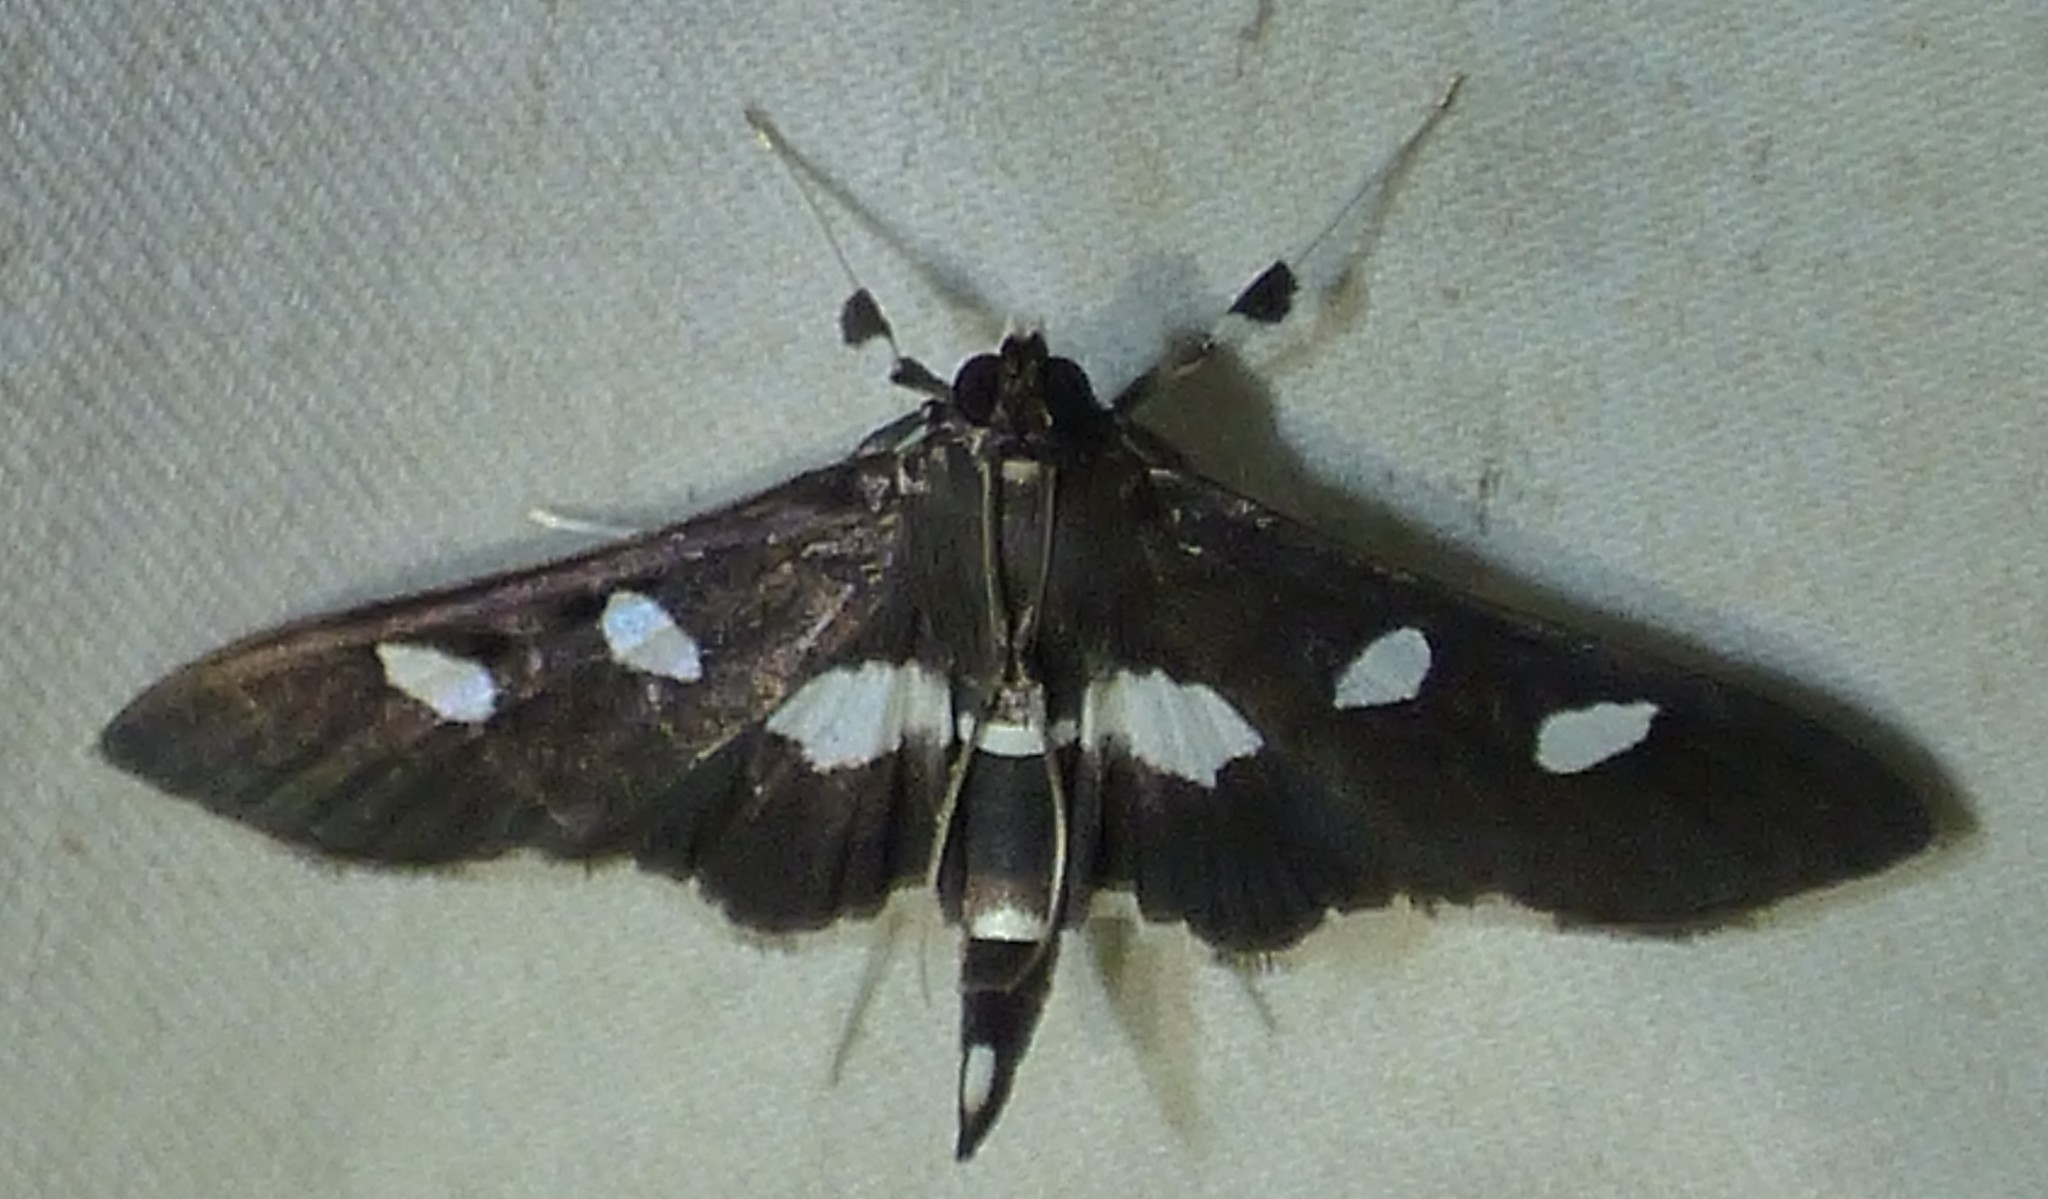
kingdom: Animalia
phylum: Arthropoda
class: Insecta
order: Lepidoptera
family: Crambidae
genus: Desmia
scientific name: Desmia
